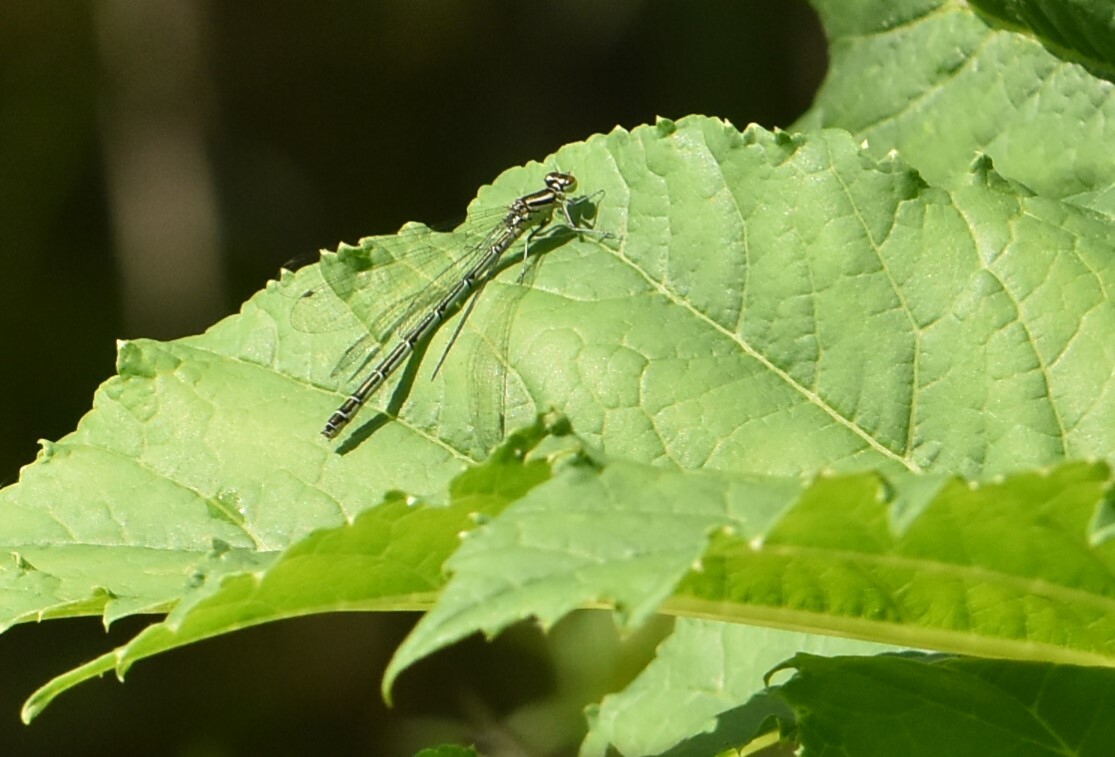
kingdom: Animalia
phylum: Arthropoda
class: Insecta
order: Odonata
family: Coenagrionidae
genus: Coenagrion
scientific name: Coenagrion hastulatum
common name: Spearhead bluet
